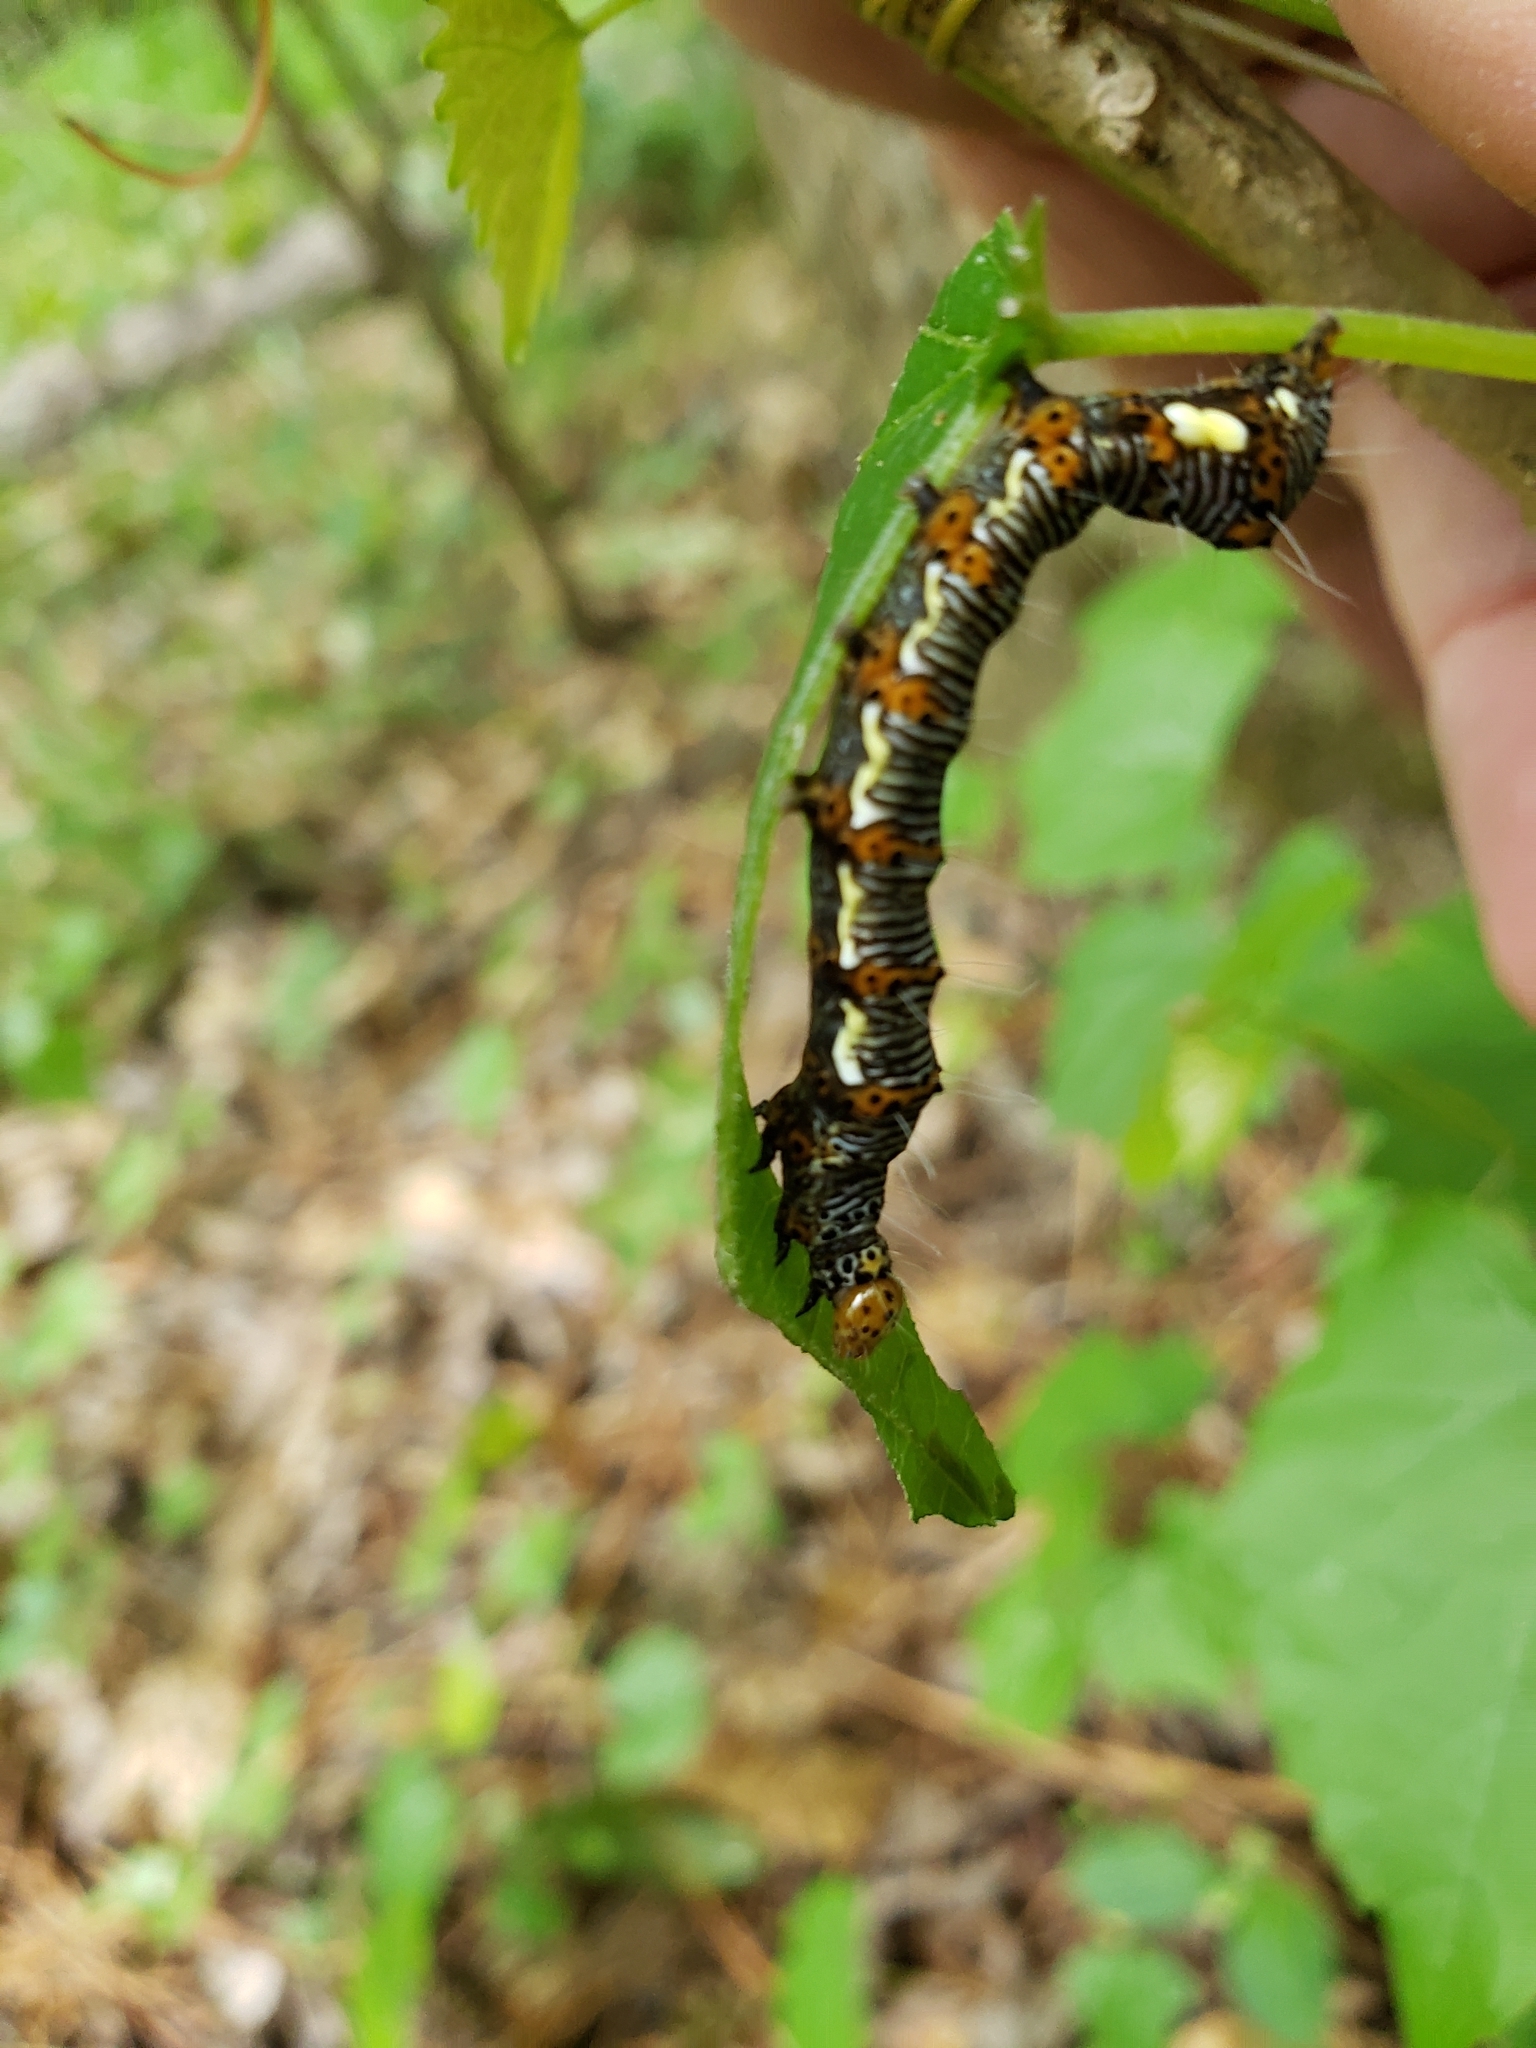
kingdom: Animalia
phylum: Arthropoda
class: Insecta
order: Lepidoptera
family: Noctuidae
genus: Alypia
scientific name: Alypia octomaculata
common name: Eight-spotted forester
